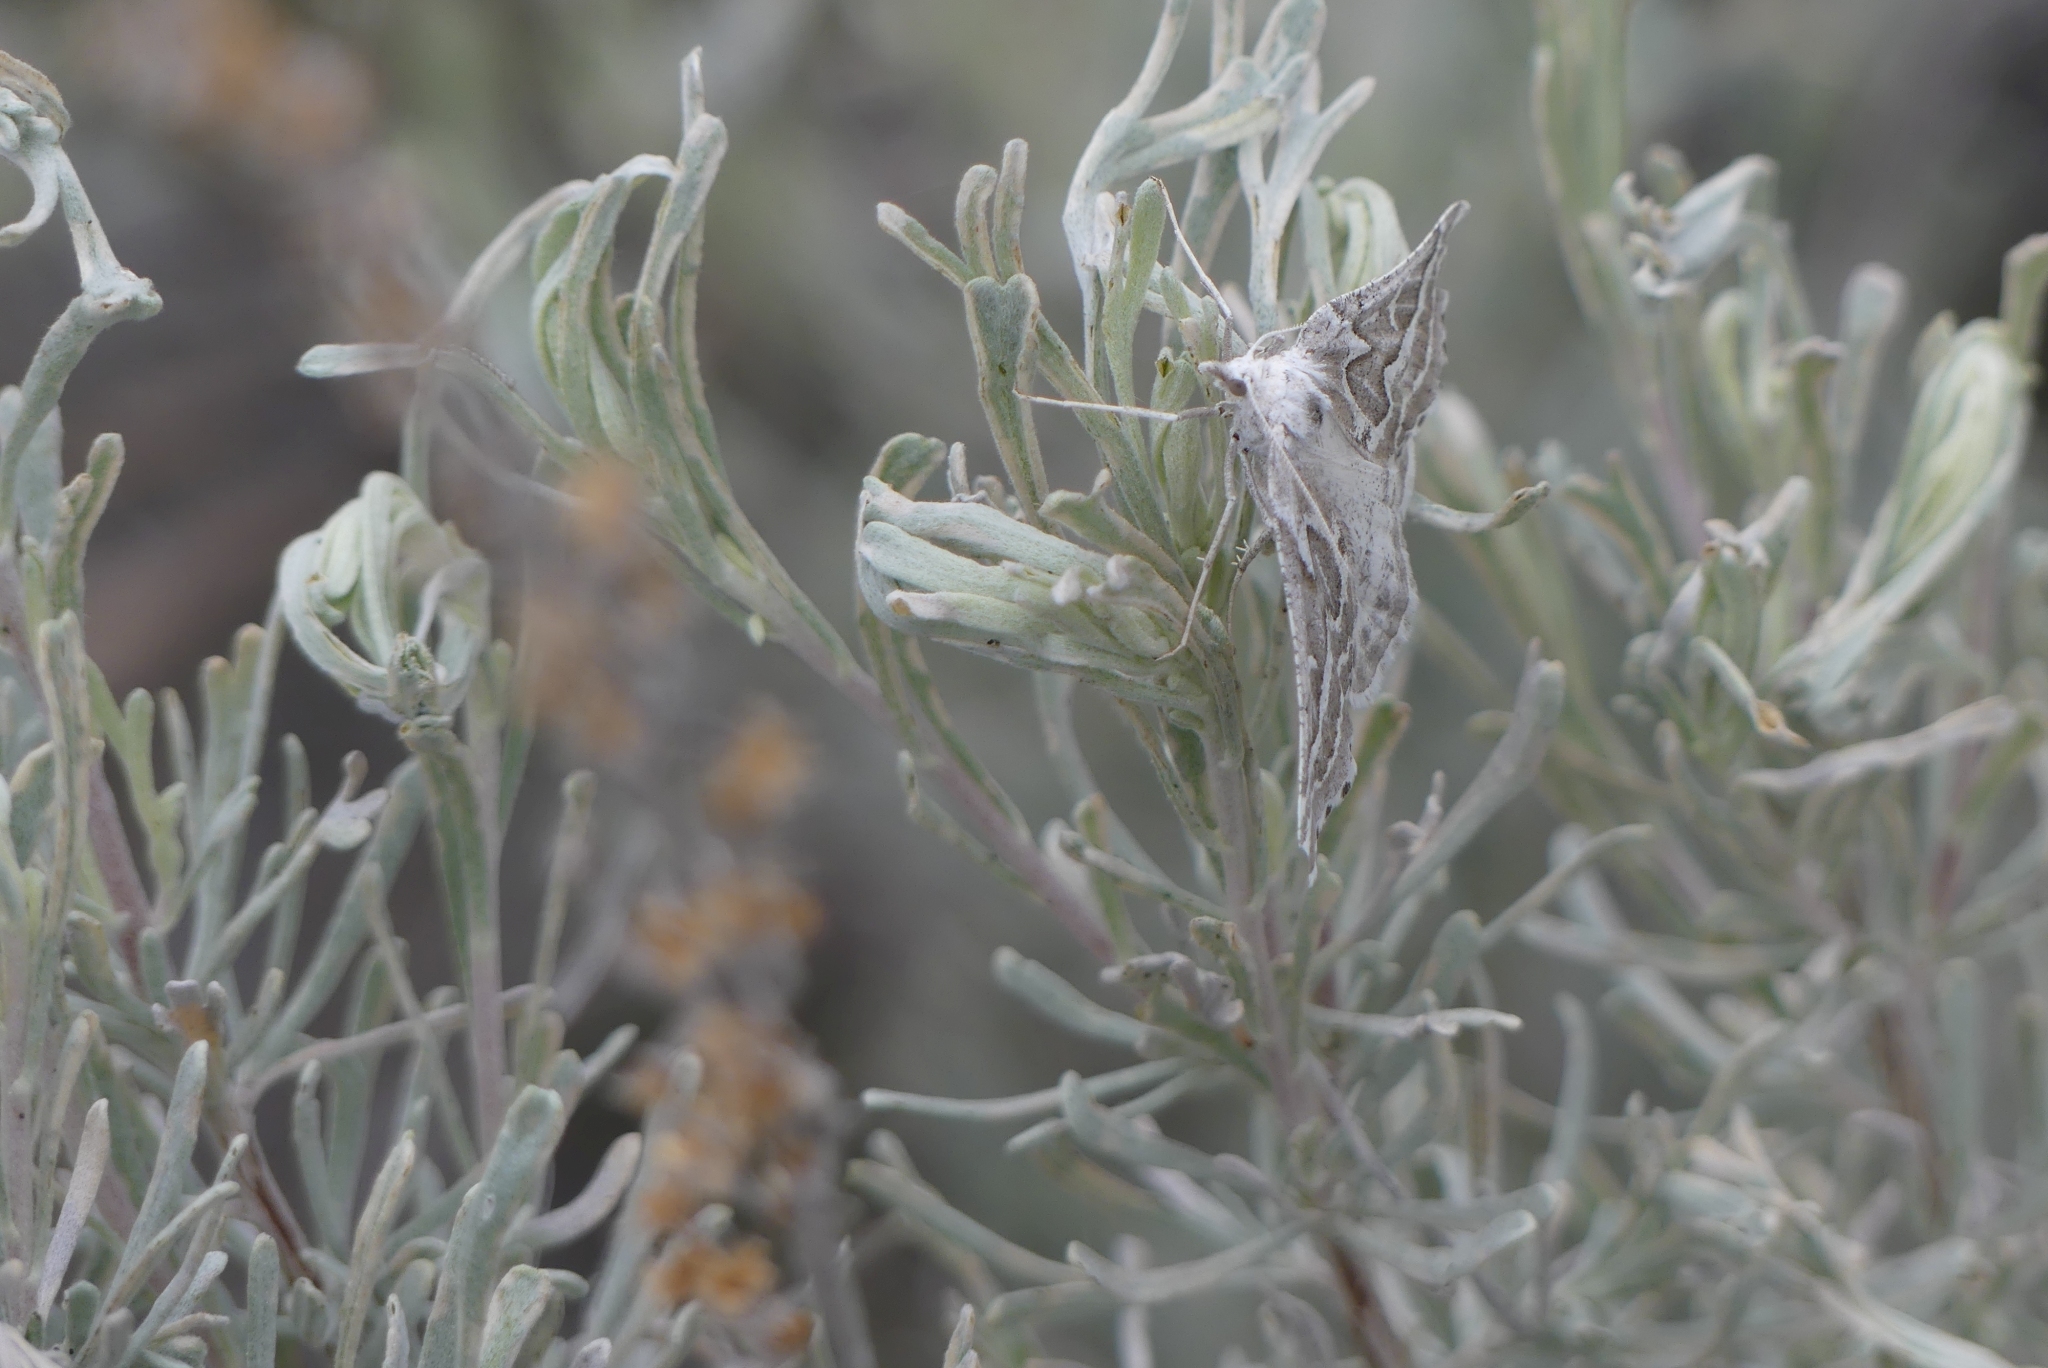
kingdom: Animalia
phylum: Arthropoda
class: Insecta
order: Lepidoptera
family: Geometridae
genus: Plataea
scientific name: Plataea trilinearia
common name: Sagebrush girdle moth
